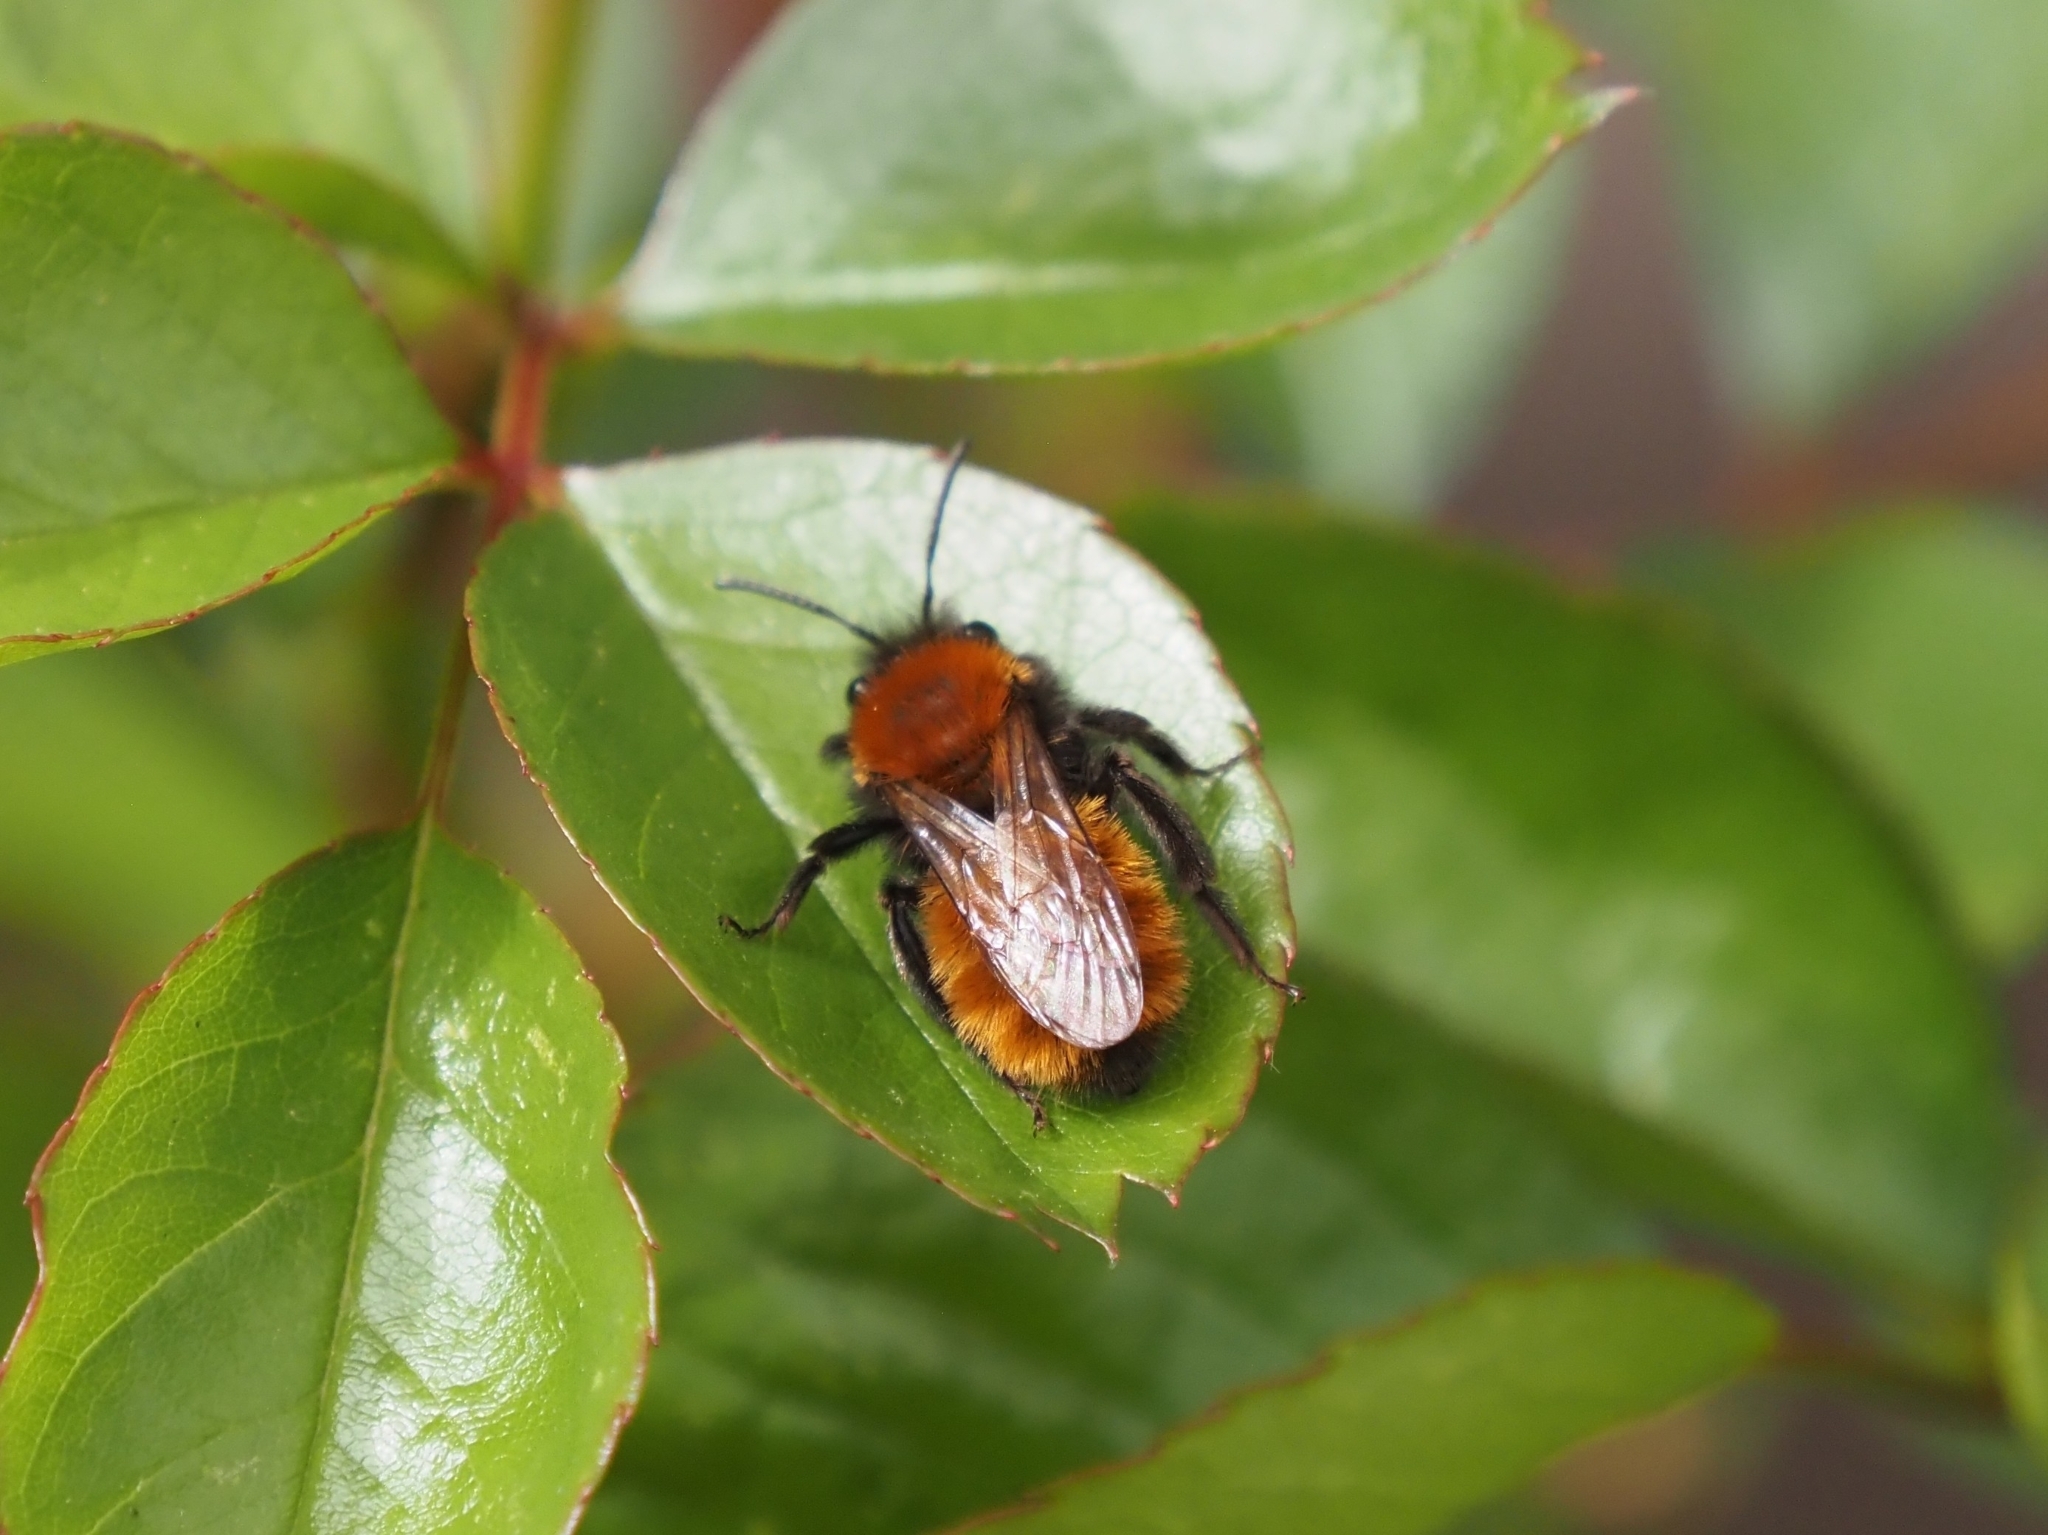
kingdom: Animalia
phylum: Arthropoda
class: Insecta
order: Hymenoptera
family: Andrenidae
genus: Andrena
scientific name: Andrena fulva
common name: Tawny mining bee
